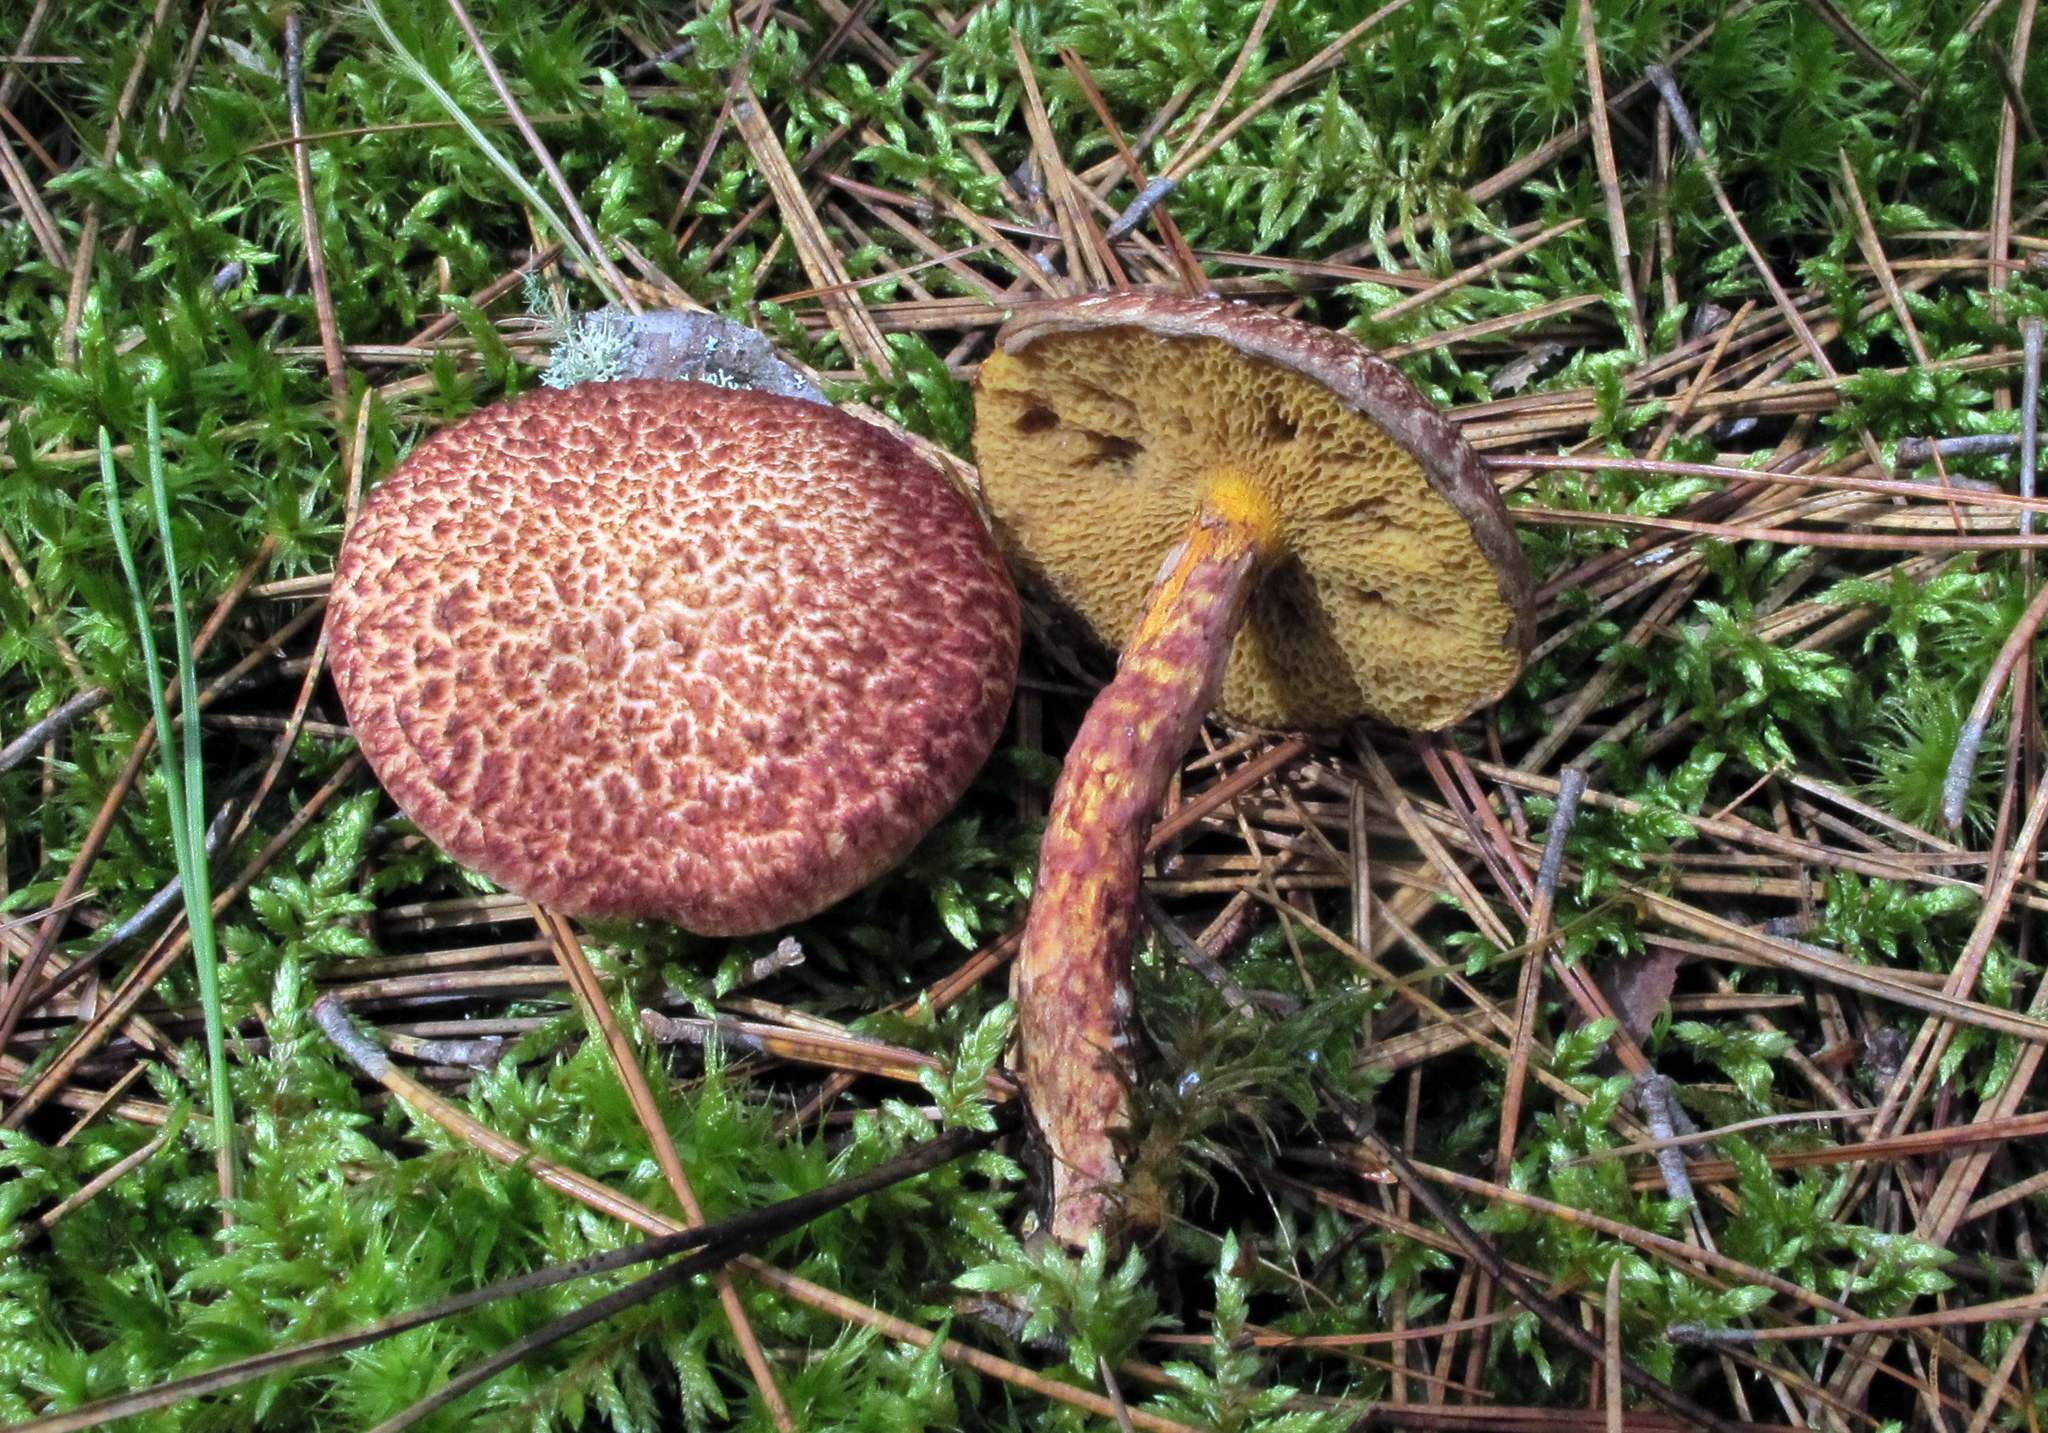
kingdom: Fungi
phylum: Basidiomycota
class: Agaricomycetes
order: Boletales
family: Suillaceae
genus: Suillus
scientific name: Suillus spraguei
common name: Painted suillus
